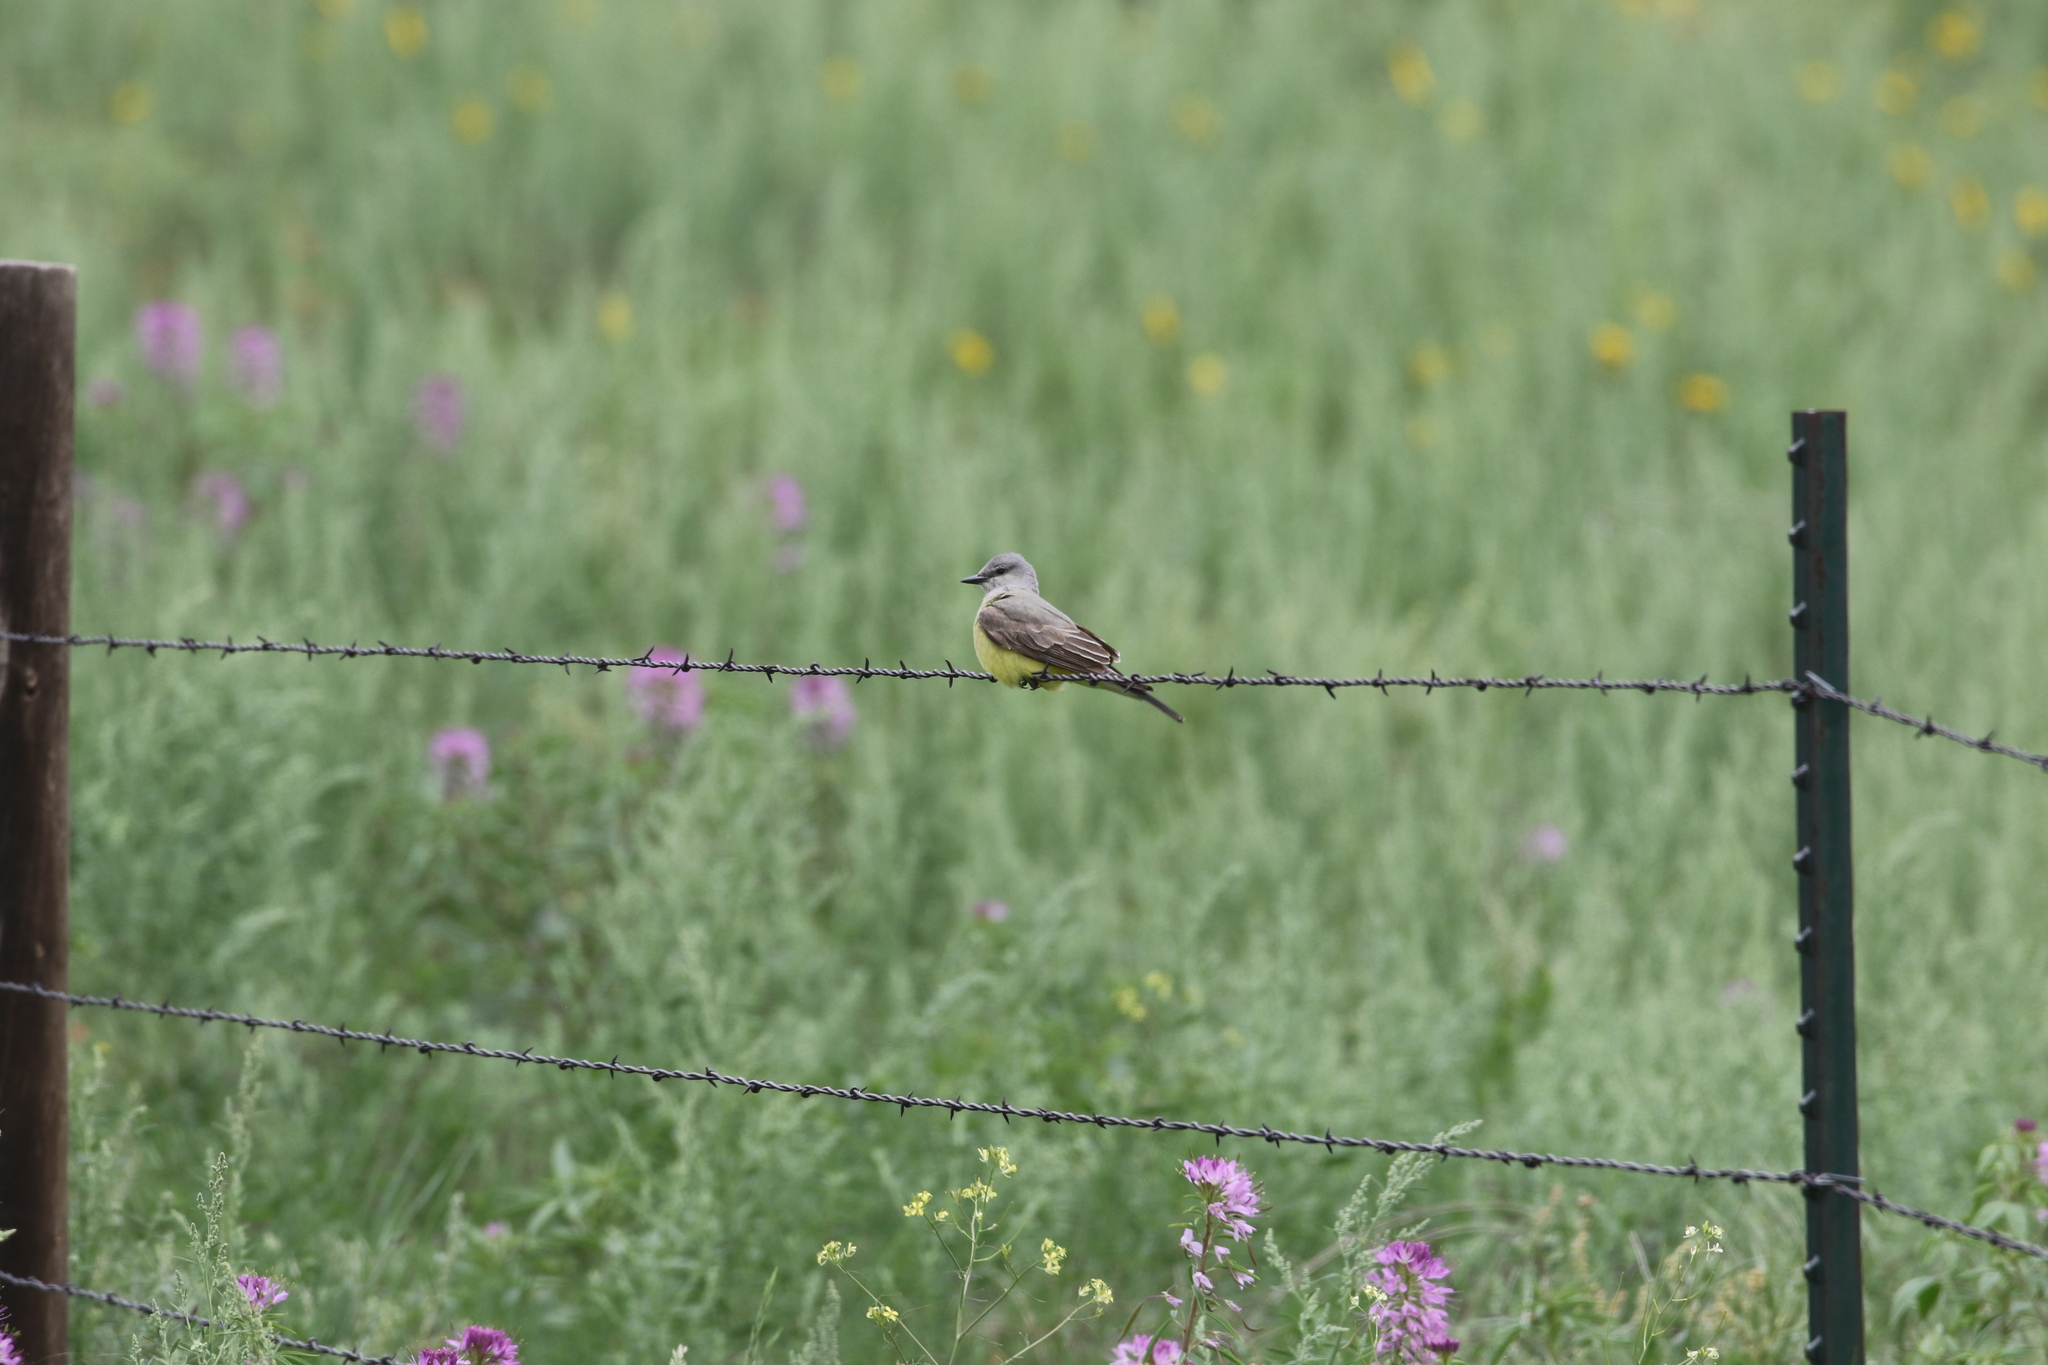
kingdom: Animalia
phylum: Chordata
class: Aves
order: Passeriformes
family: Tyrannidae
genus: Tyrannus
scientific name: Tyrannus verticalis
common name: Western kingbird
